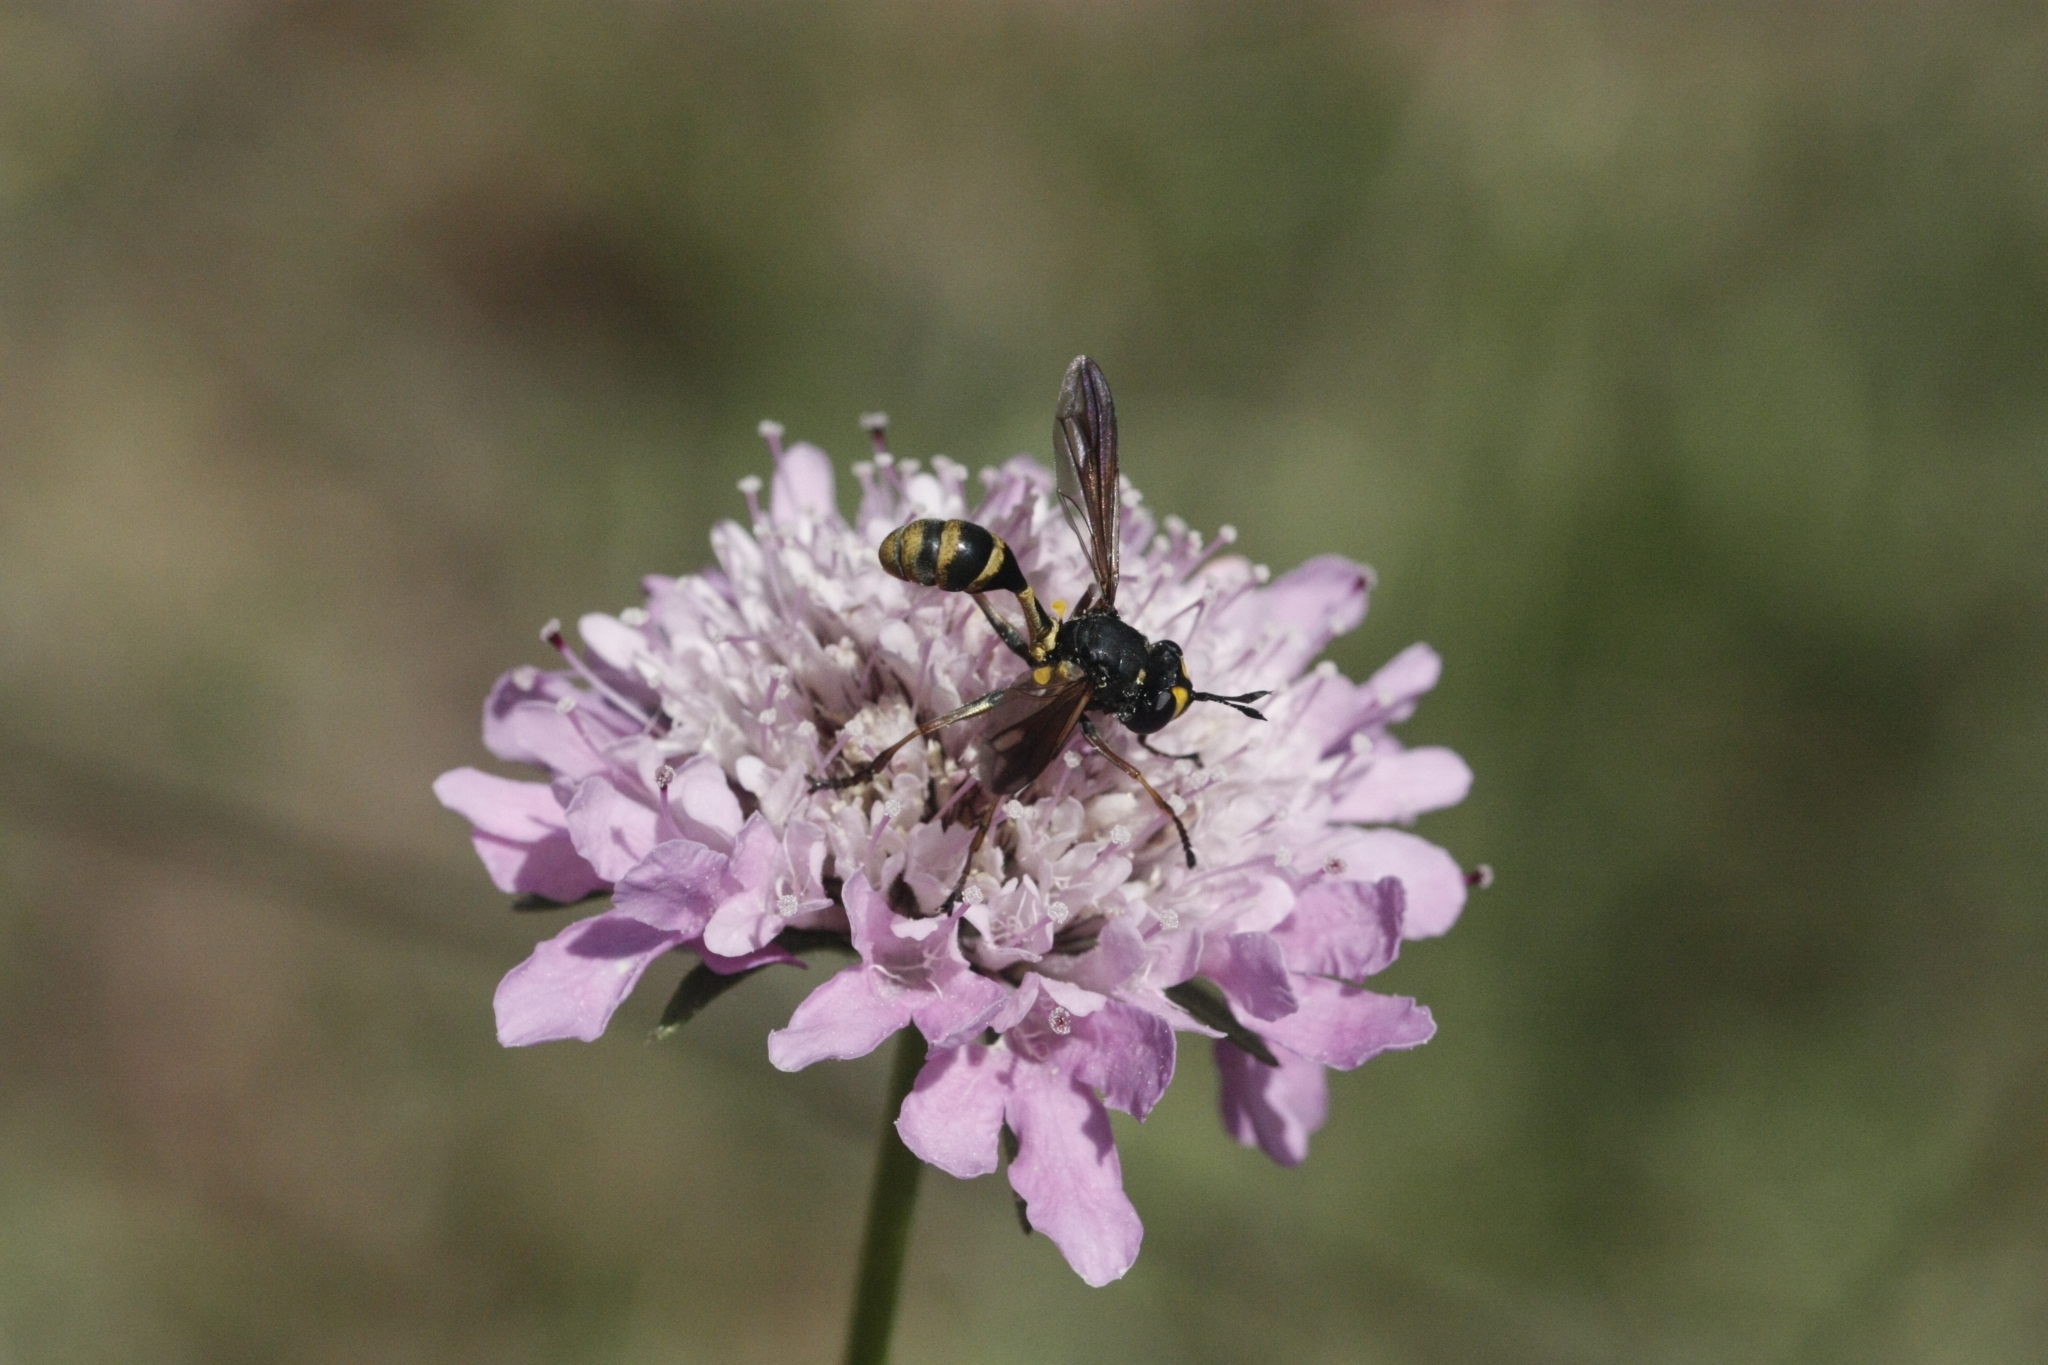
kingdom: Animalia
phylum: Arthropoda
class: Insecta
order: Diptera
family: Conopidae
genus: Physocephala
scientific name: Physocephala rufipes
